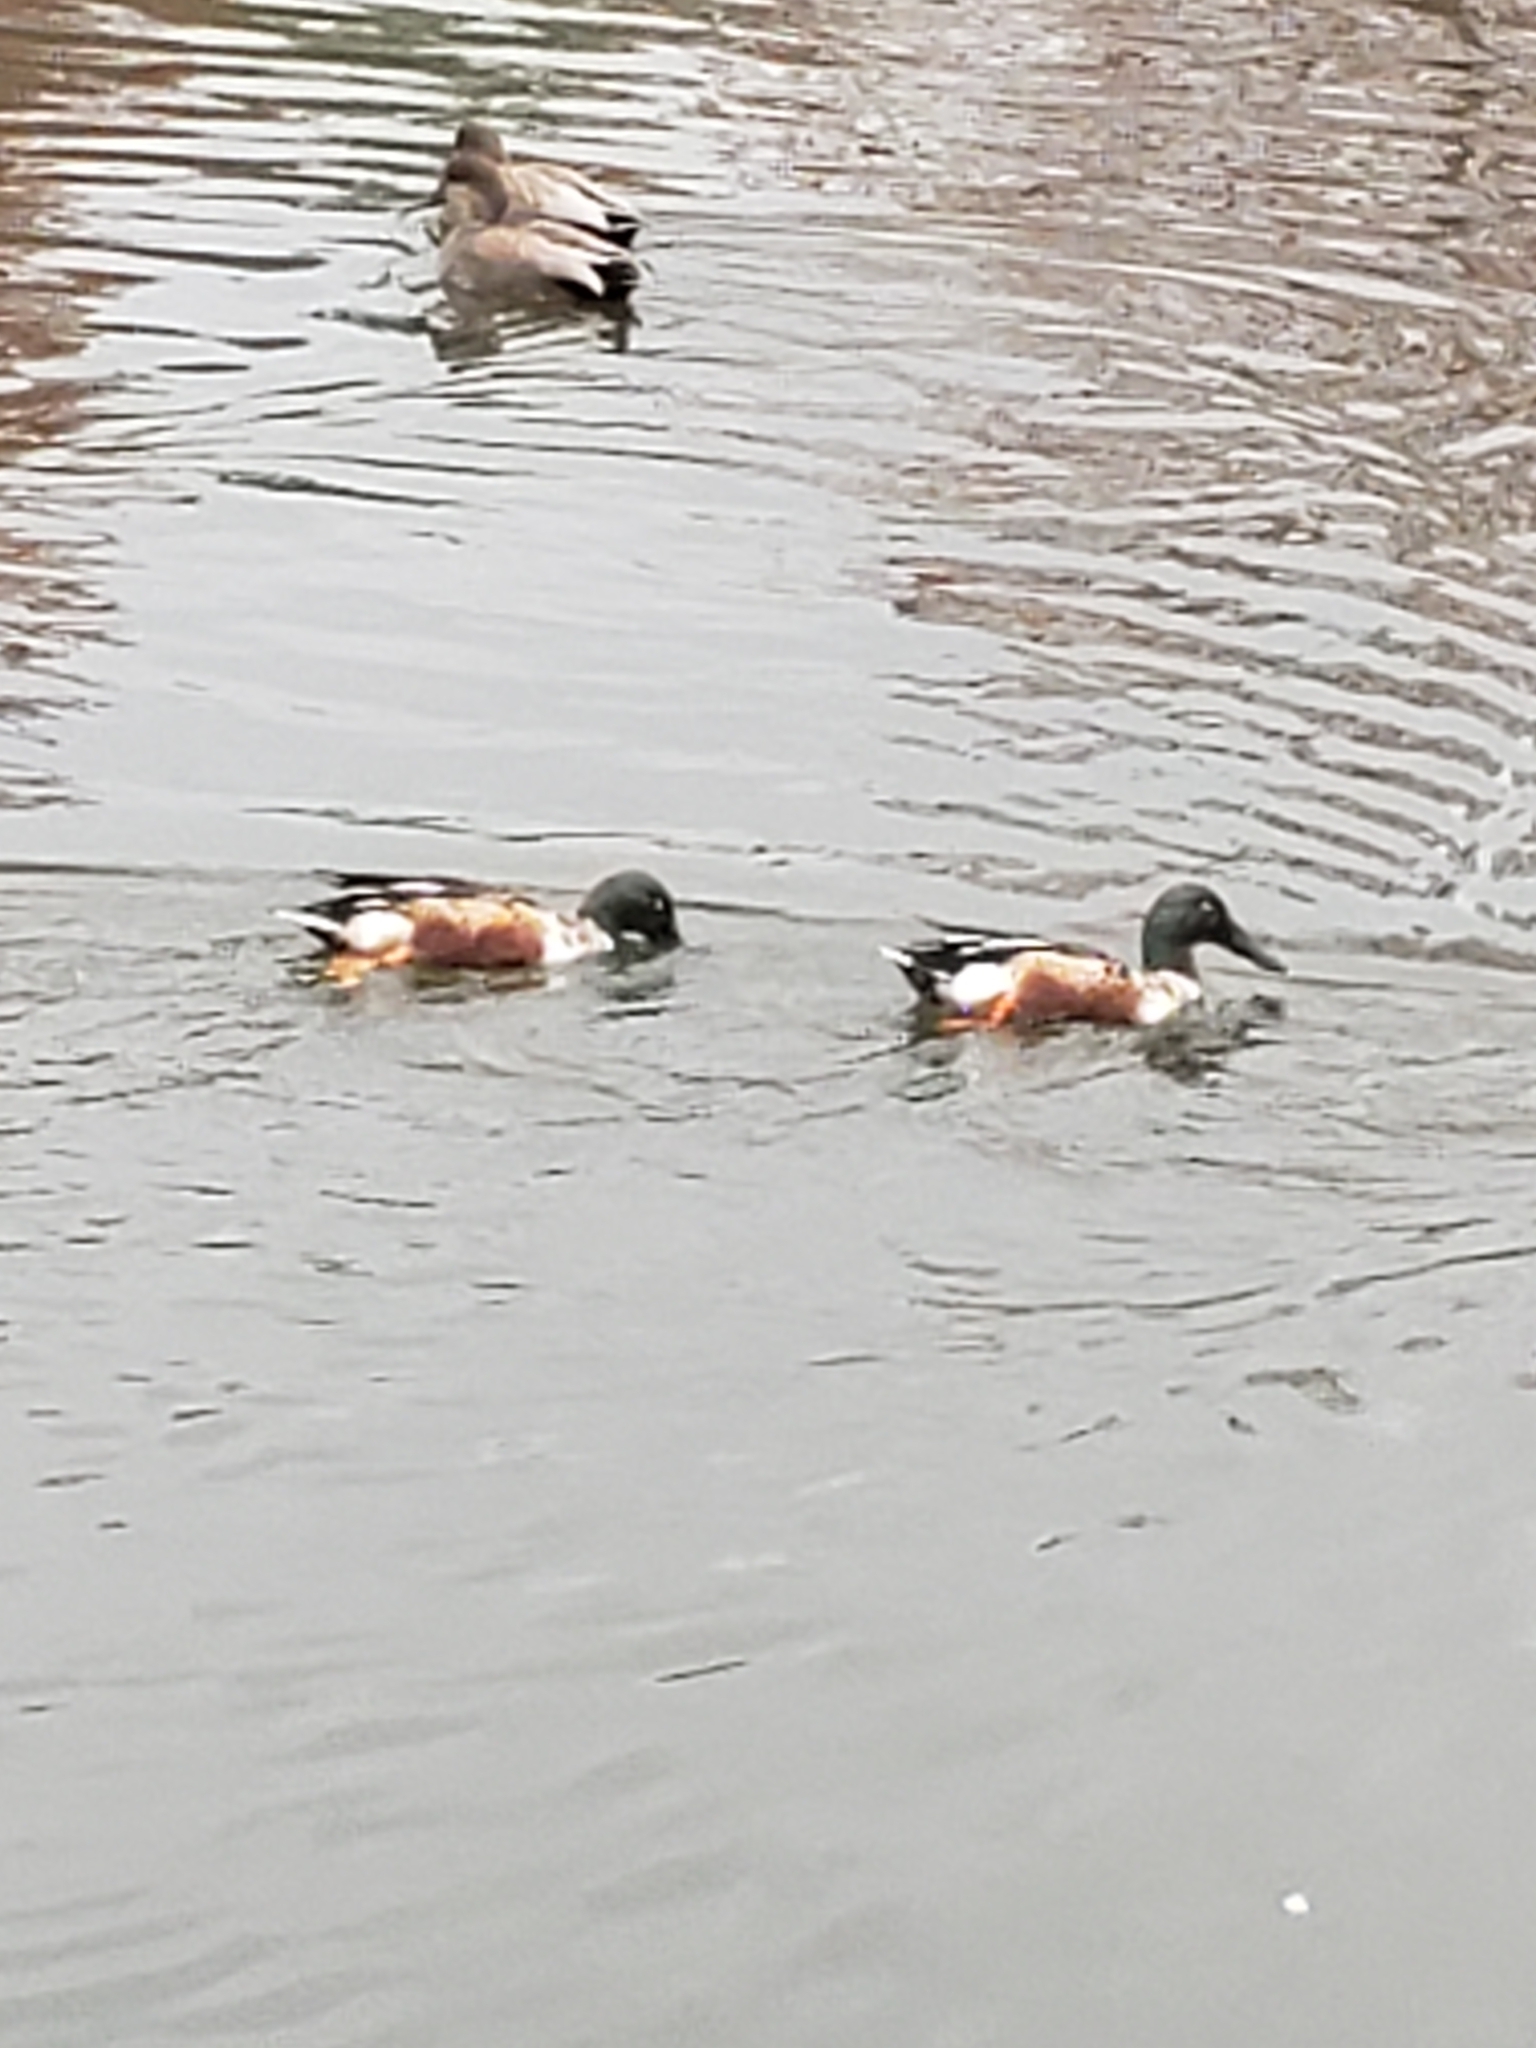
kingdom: Animalia
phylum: Chordata
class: Aves
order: Anseriformes
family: Anatidae
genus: Spatula
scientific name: Spatula clypeata
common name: Northern shoveler
